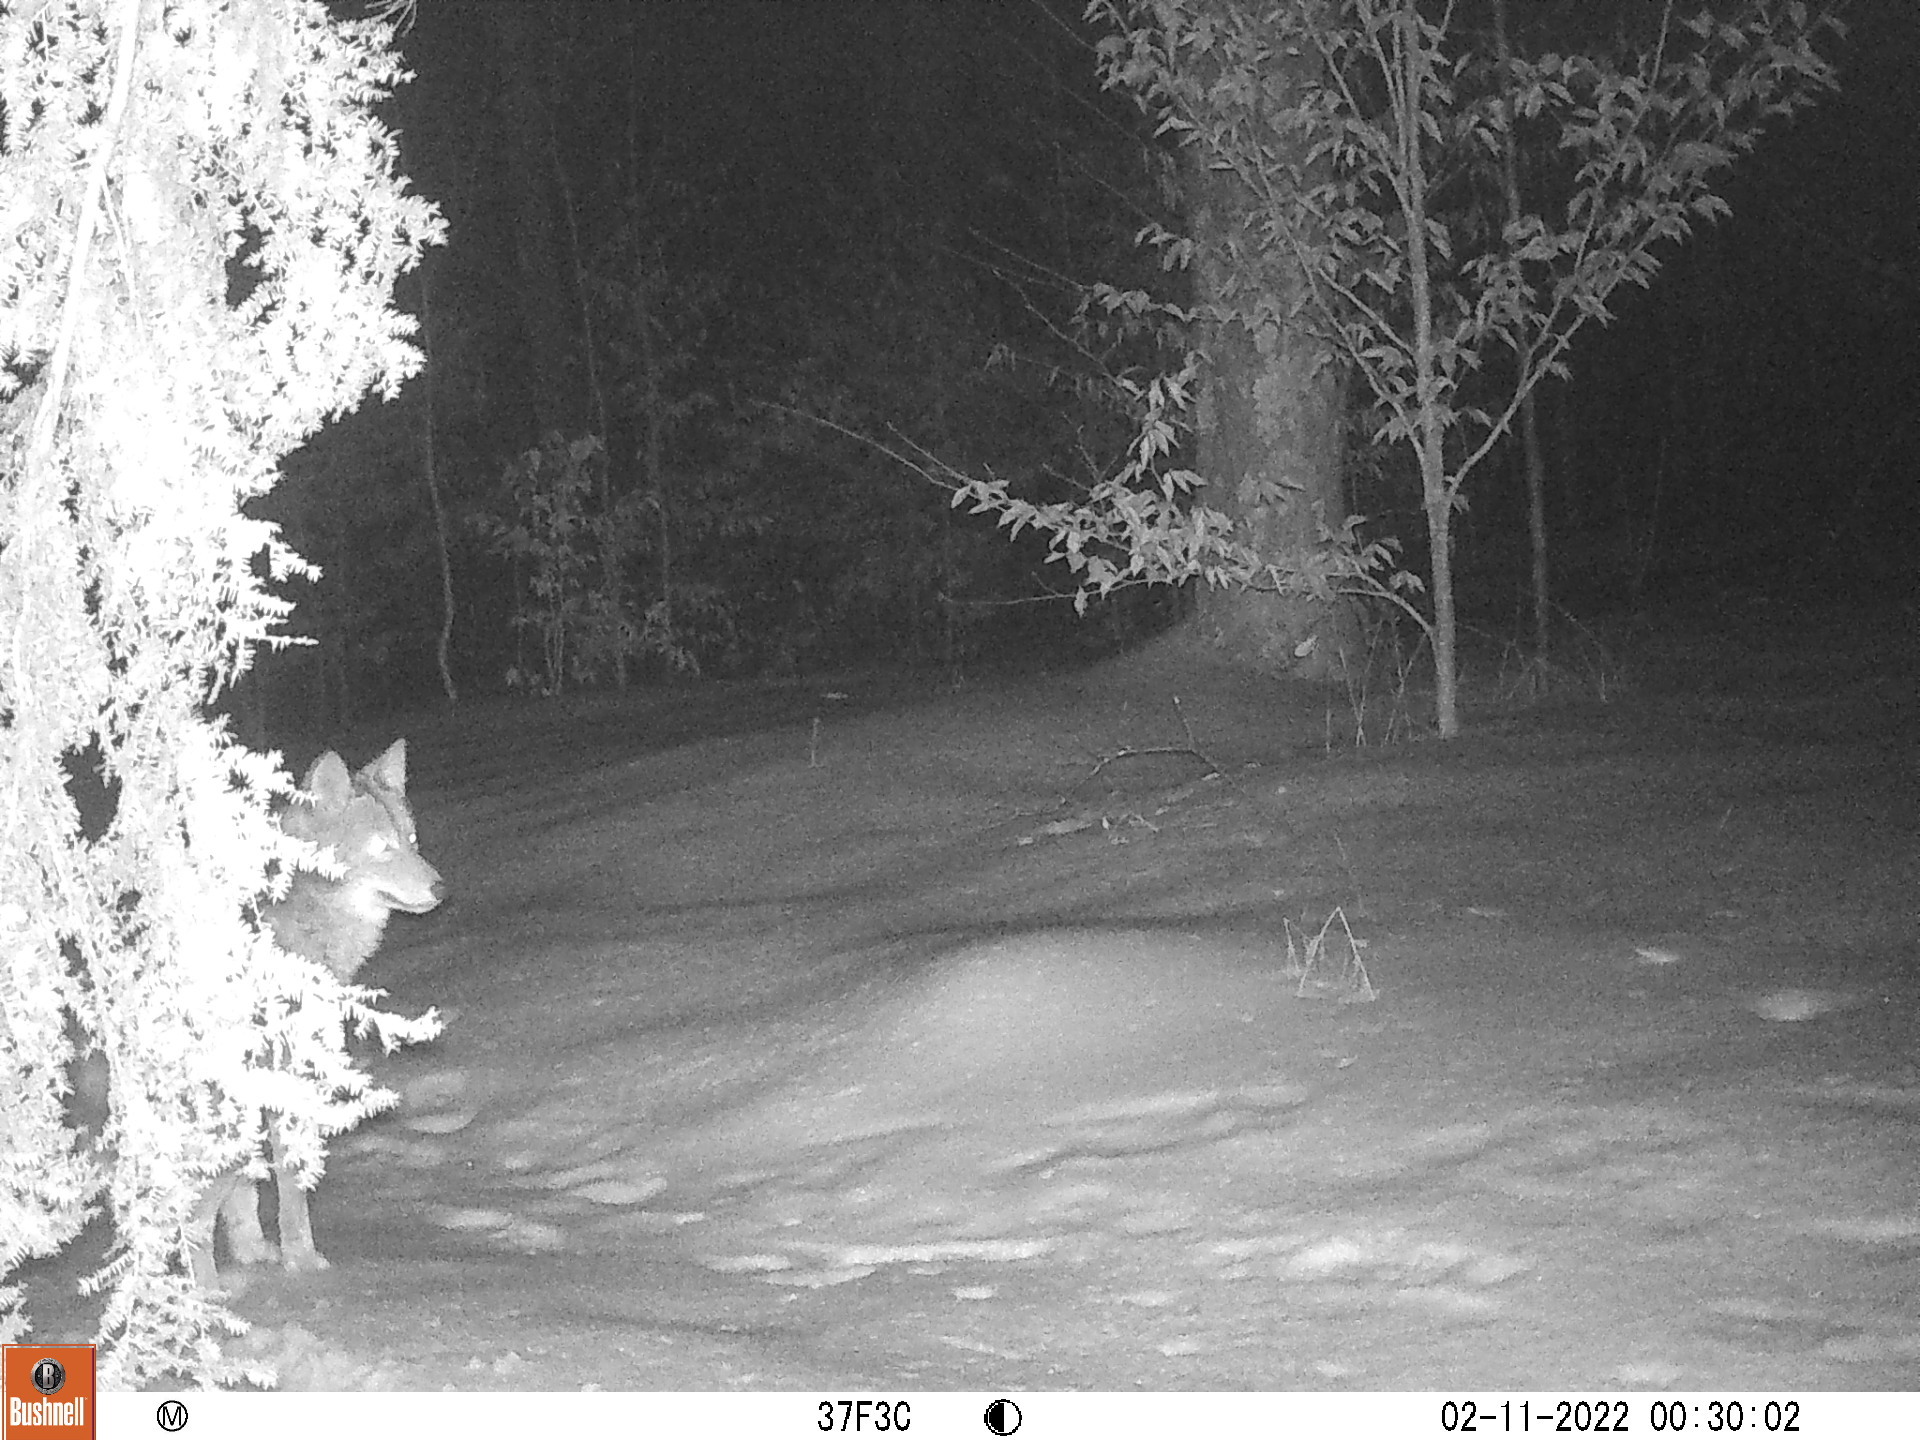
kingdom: Animalia
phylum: Chordata
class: Mammalia
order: Carnivora
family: Canidae
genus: Canis
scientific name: Canis latrans
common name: Coyote
